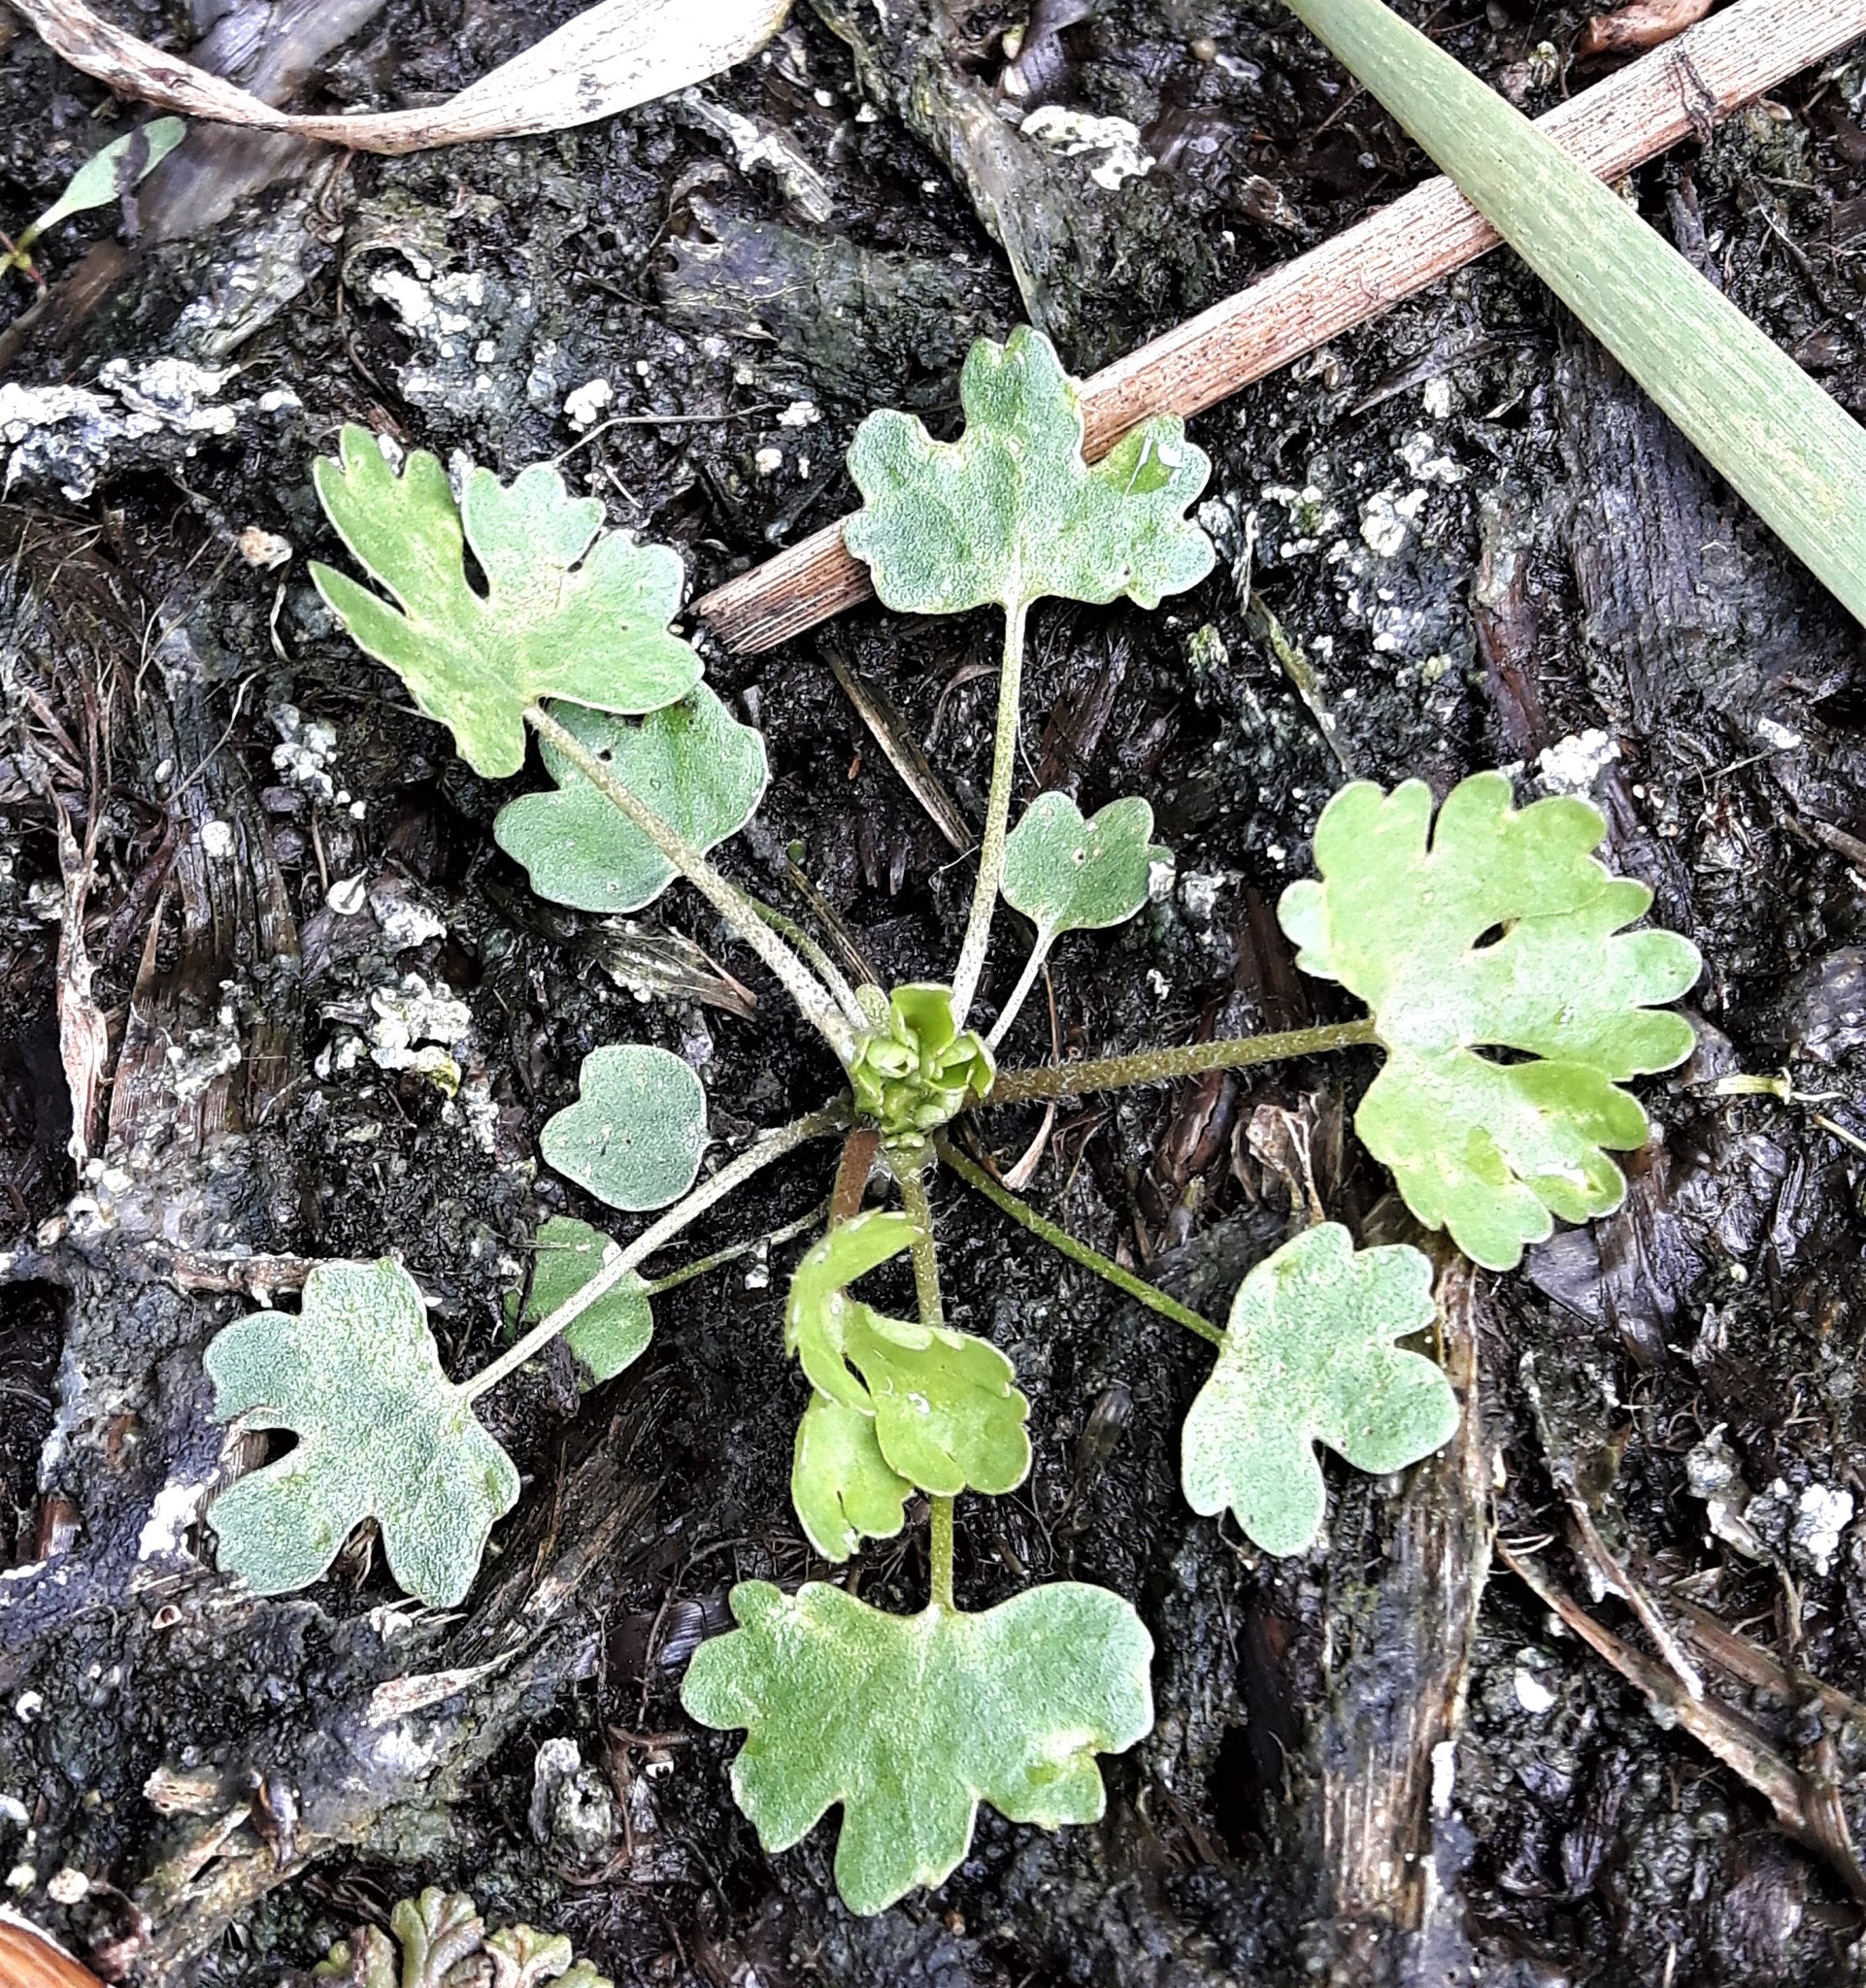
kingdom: Plantae
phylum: Tracheophyta
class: Magnoliopsida
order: Ranunculales
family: Ranunculaceae
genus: Ranunculus
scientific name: Ranunculus sceleratus
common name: Celery-leaved buttercup
